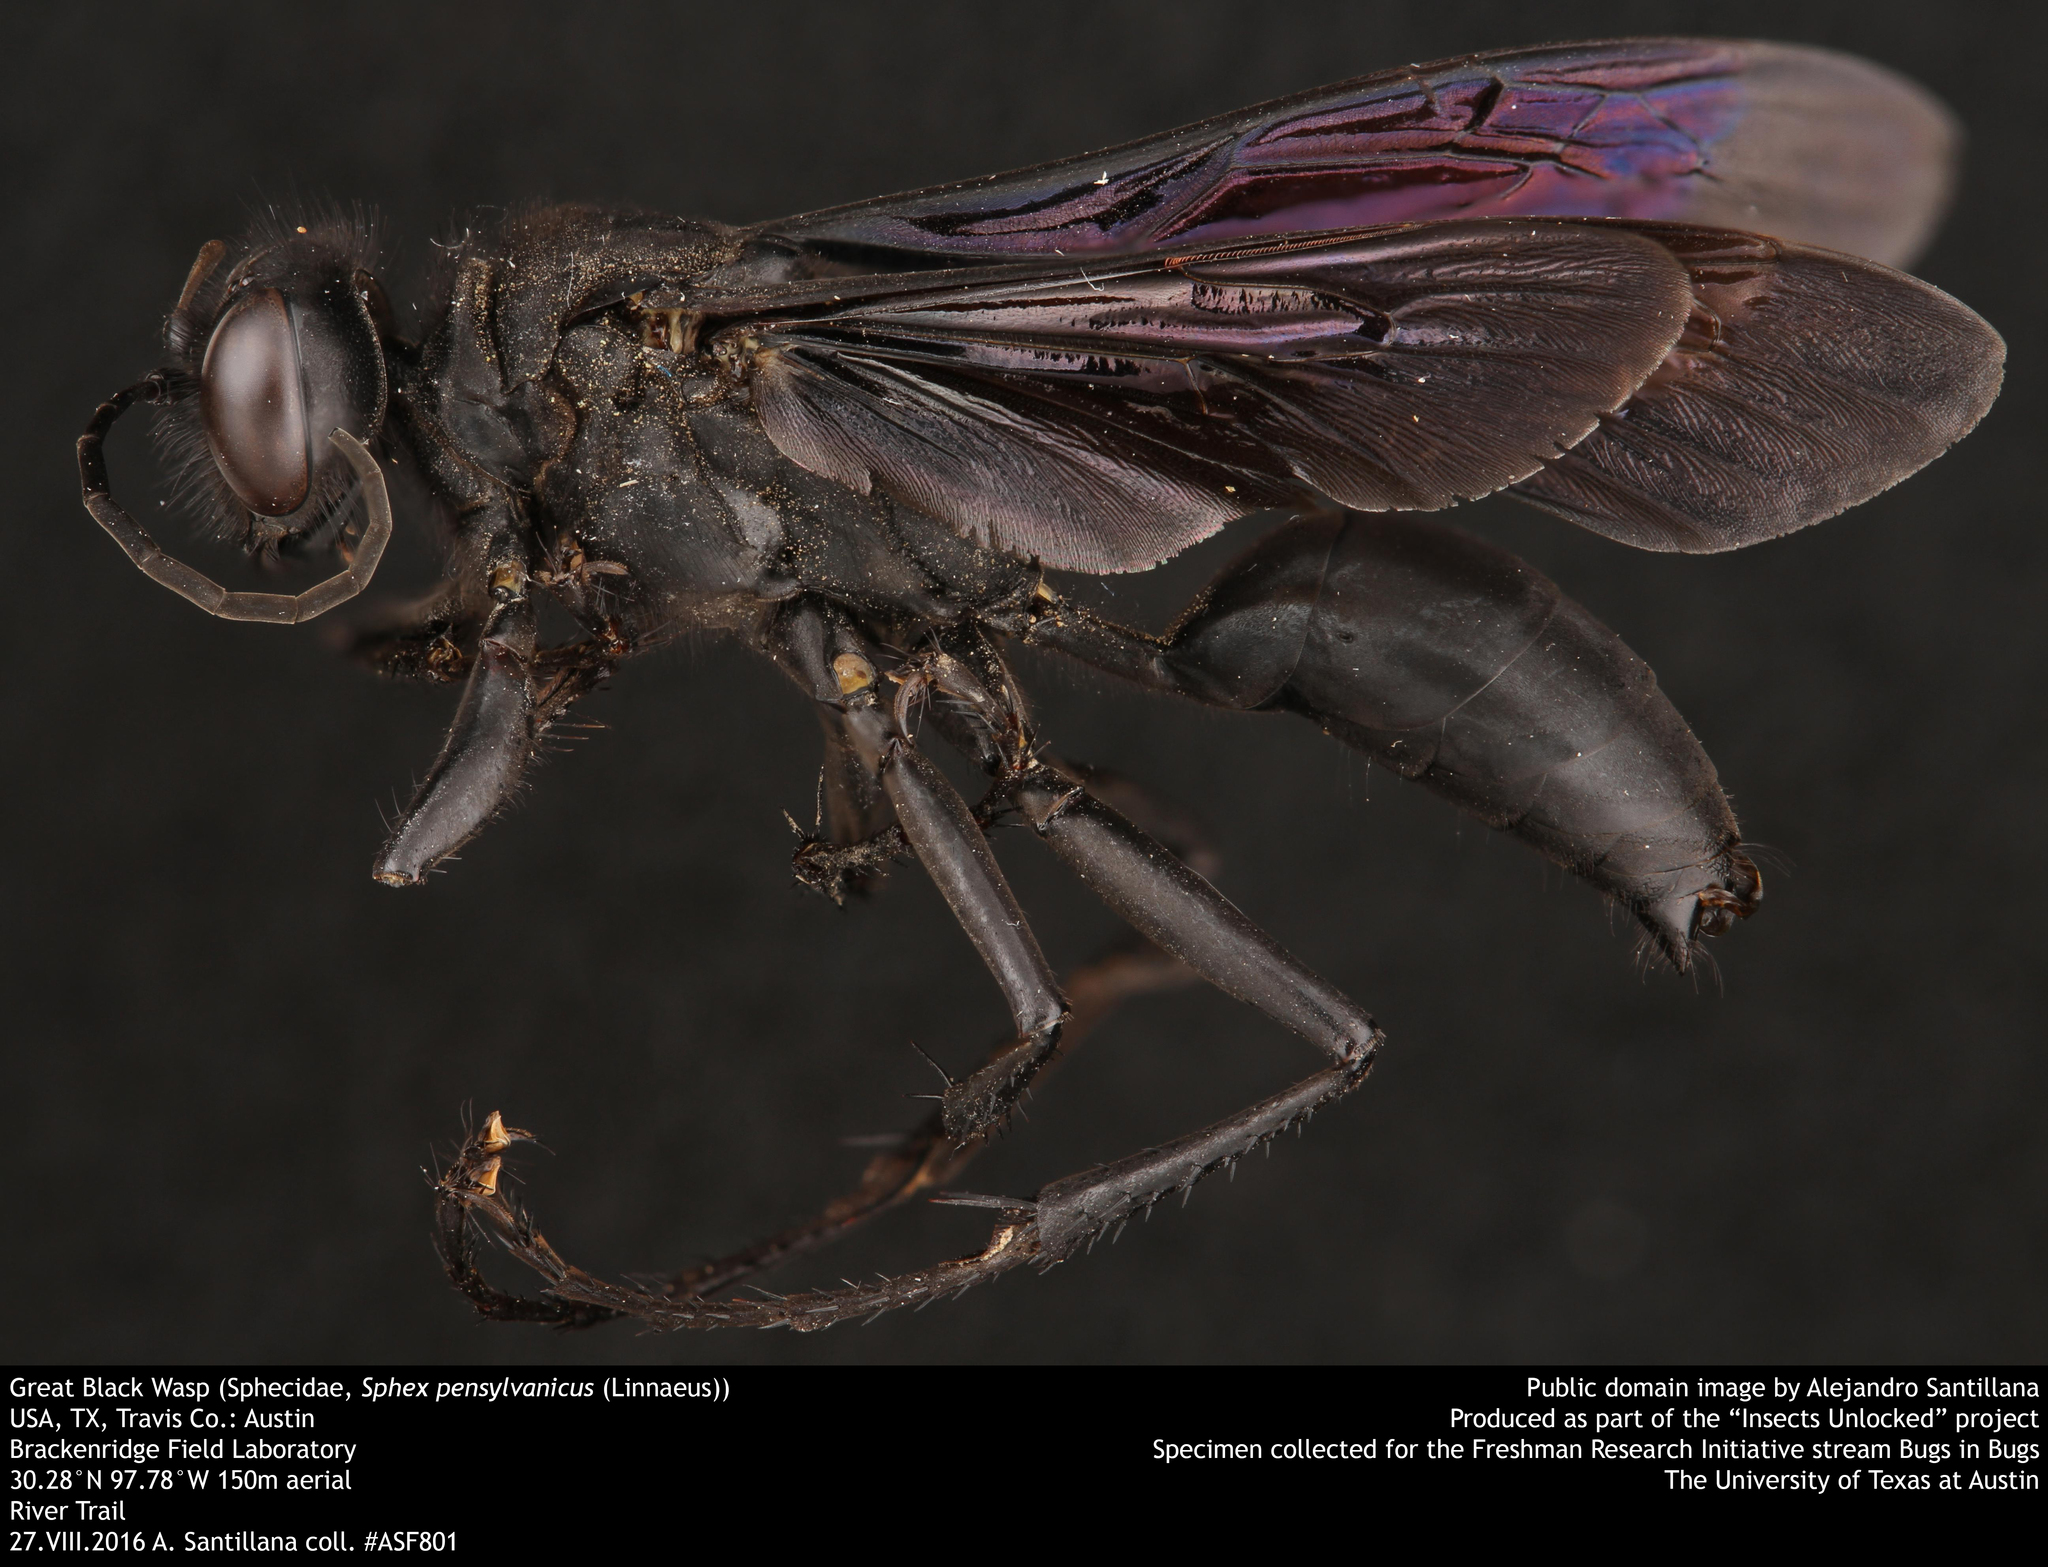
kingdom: Animalia
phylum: Arthropoda
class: Insecta
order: Hymenoptera
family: Sphecidae
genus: Sphex
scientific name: Sphex pensylvanicus
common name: Great black digger wasp
